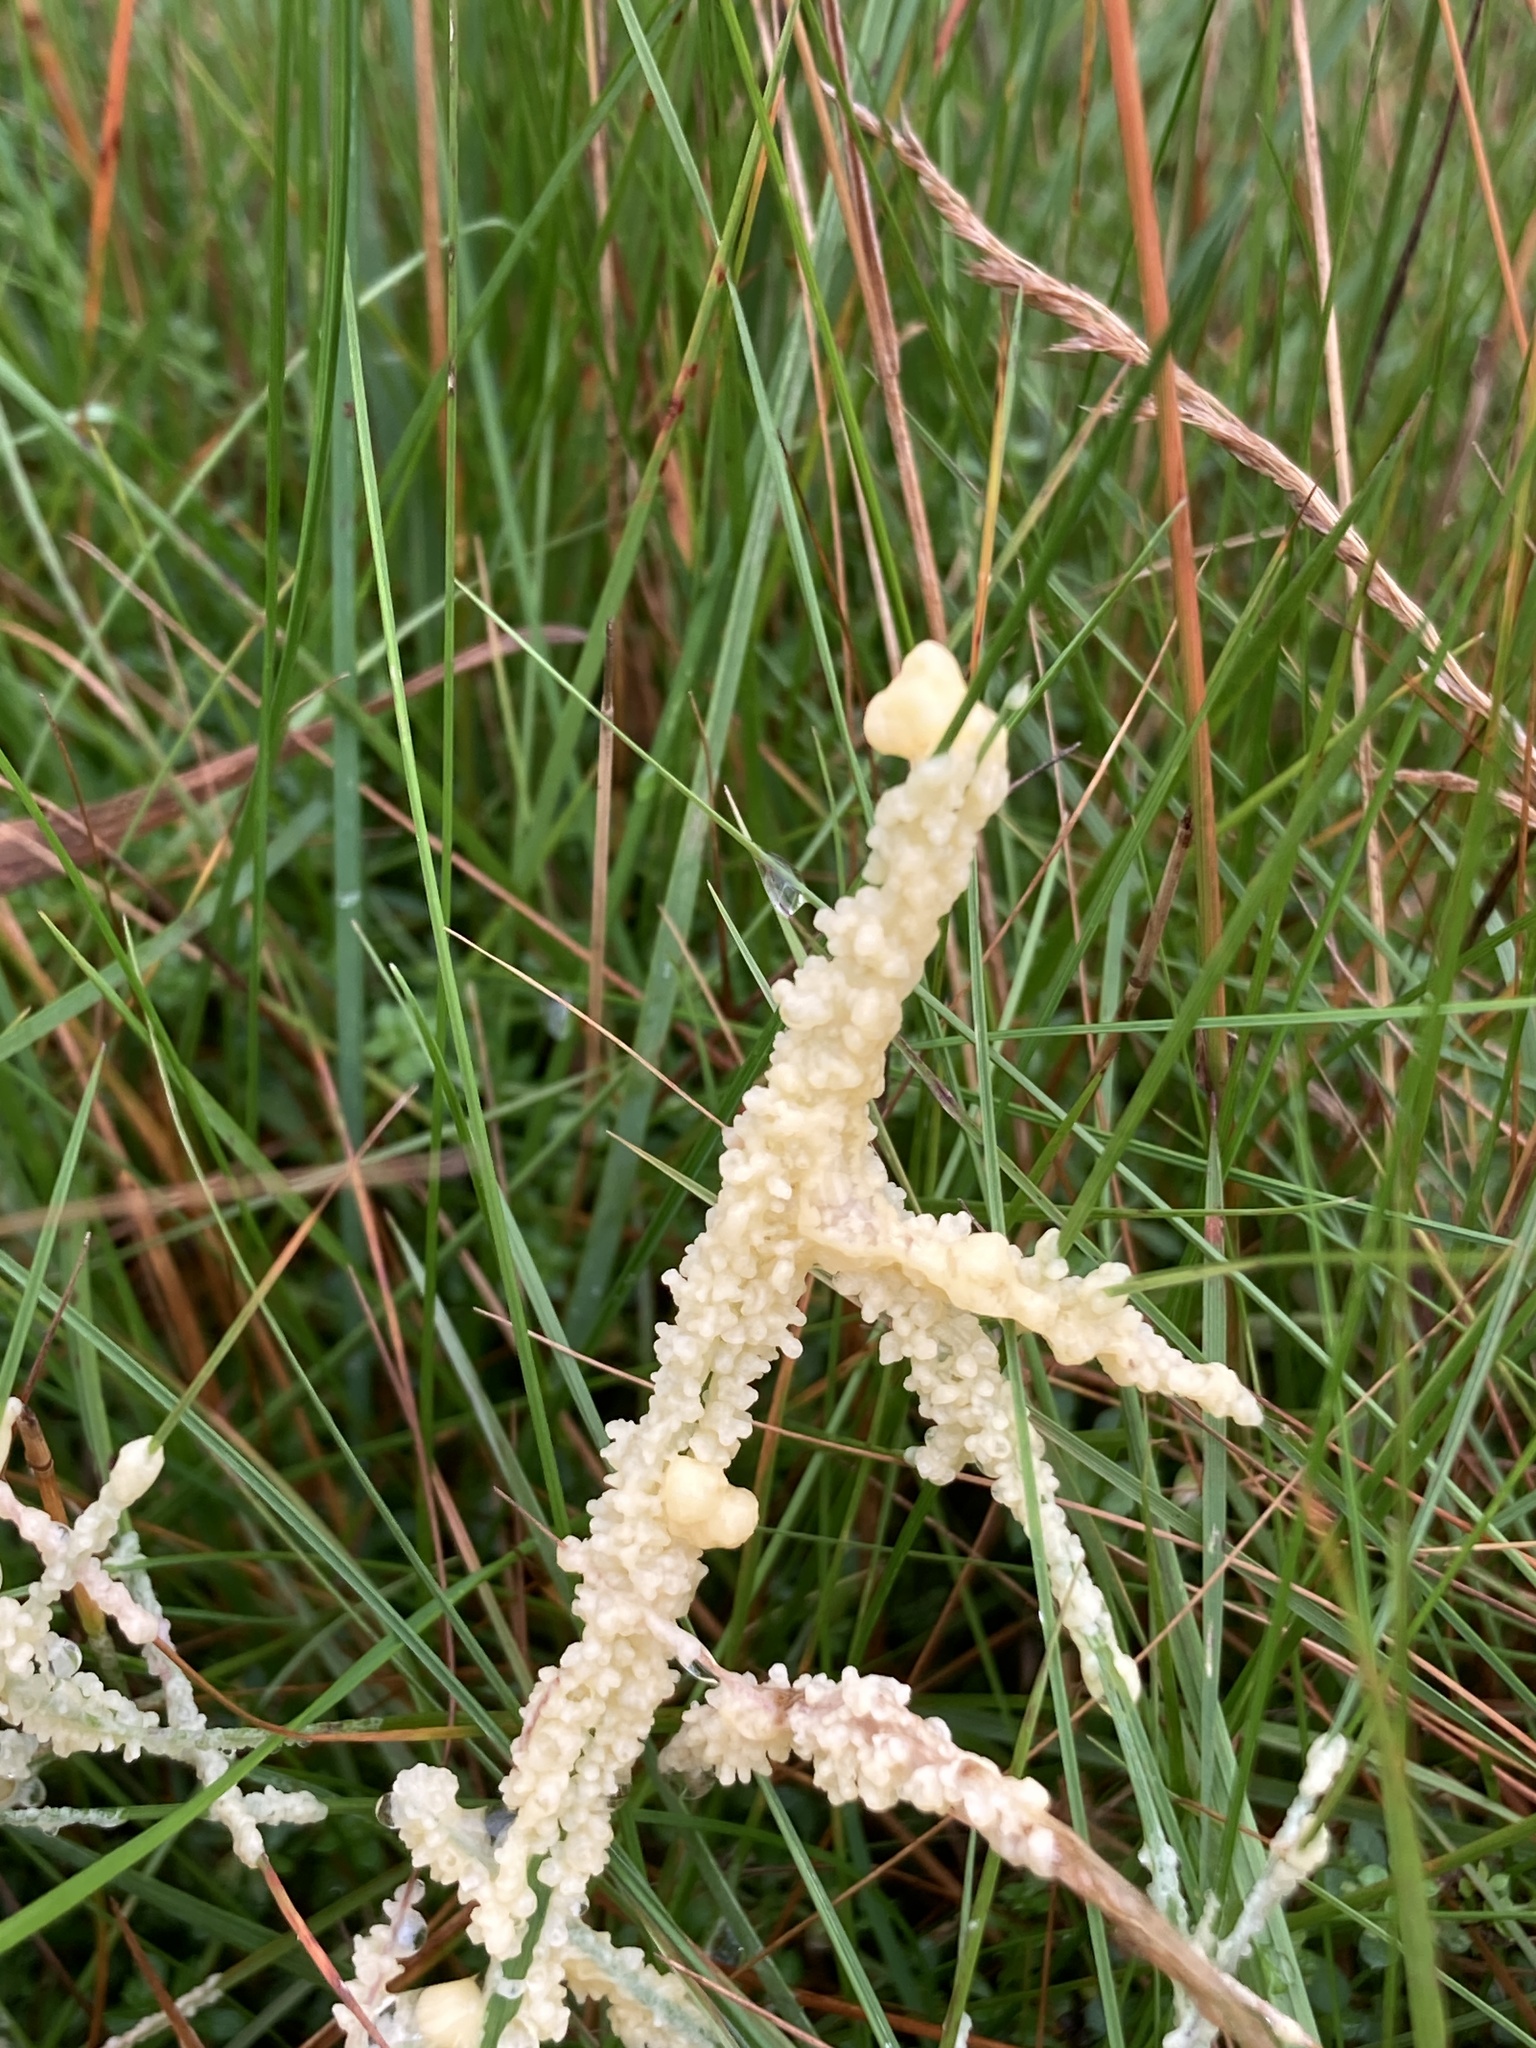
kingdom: Protozoa
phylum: Mycetozoa
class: Myxomycetes
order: Physarales
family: Physaraceae
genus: Didymium
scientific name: Didymium
